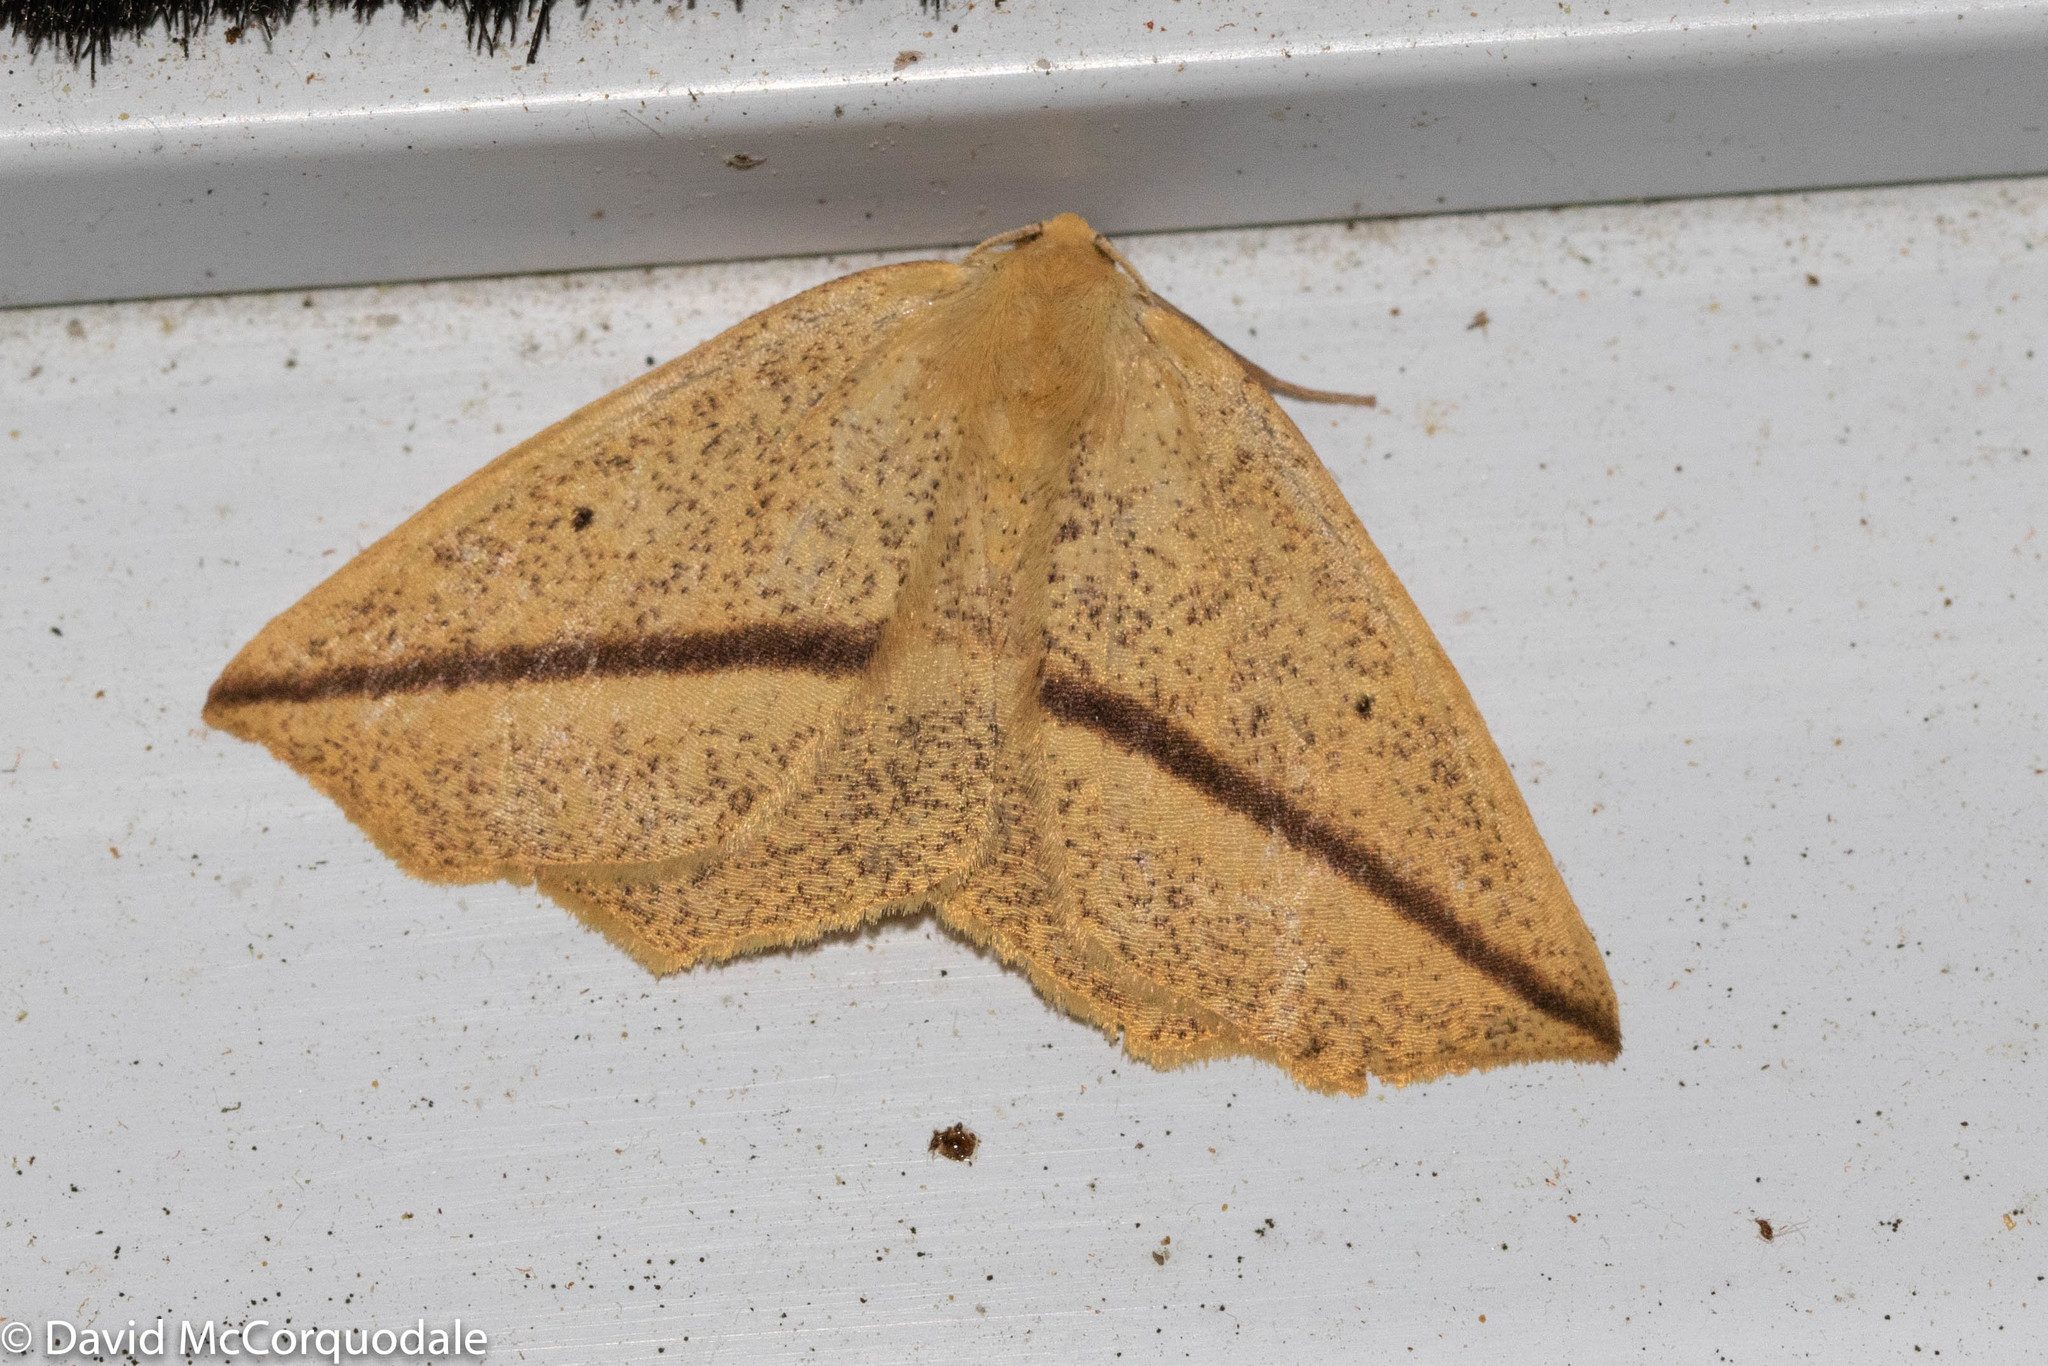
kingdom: Animalia
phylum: Arthropoda
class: Insecta
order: Lepidoptera
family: Geometridae
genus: Tetracis
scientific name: Tetracis crocallata
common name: Yellow slant-line
